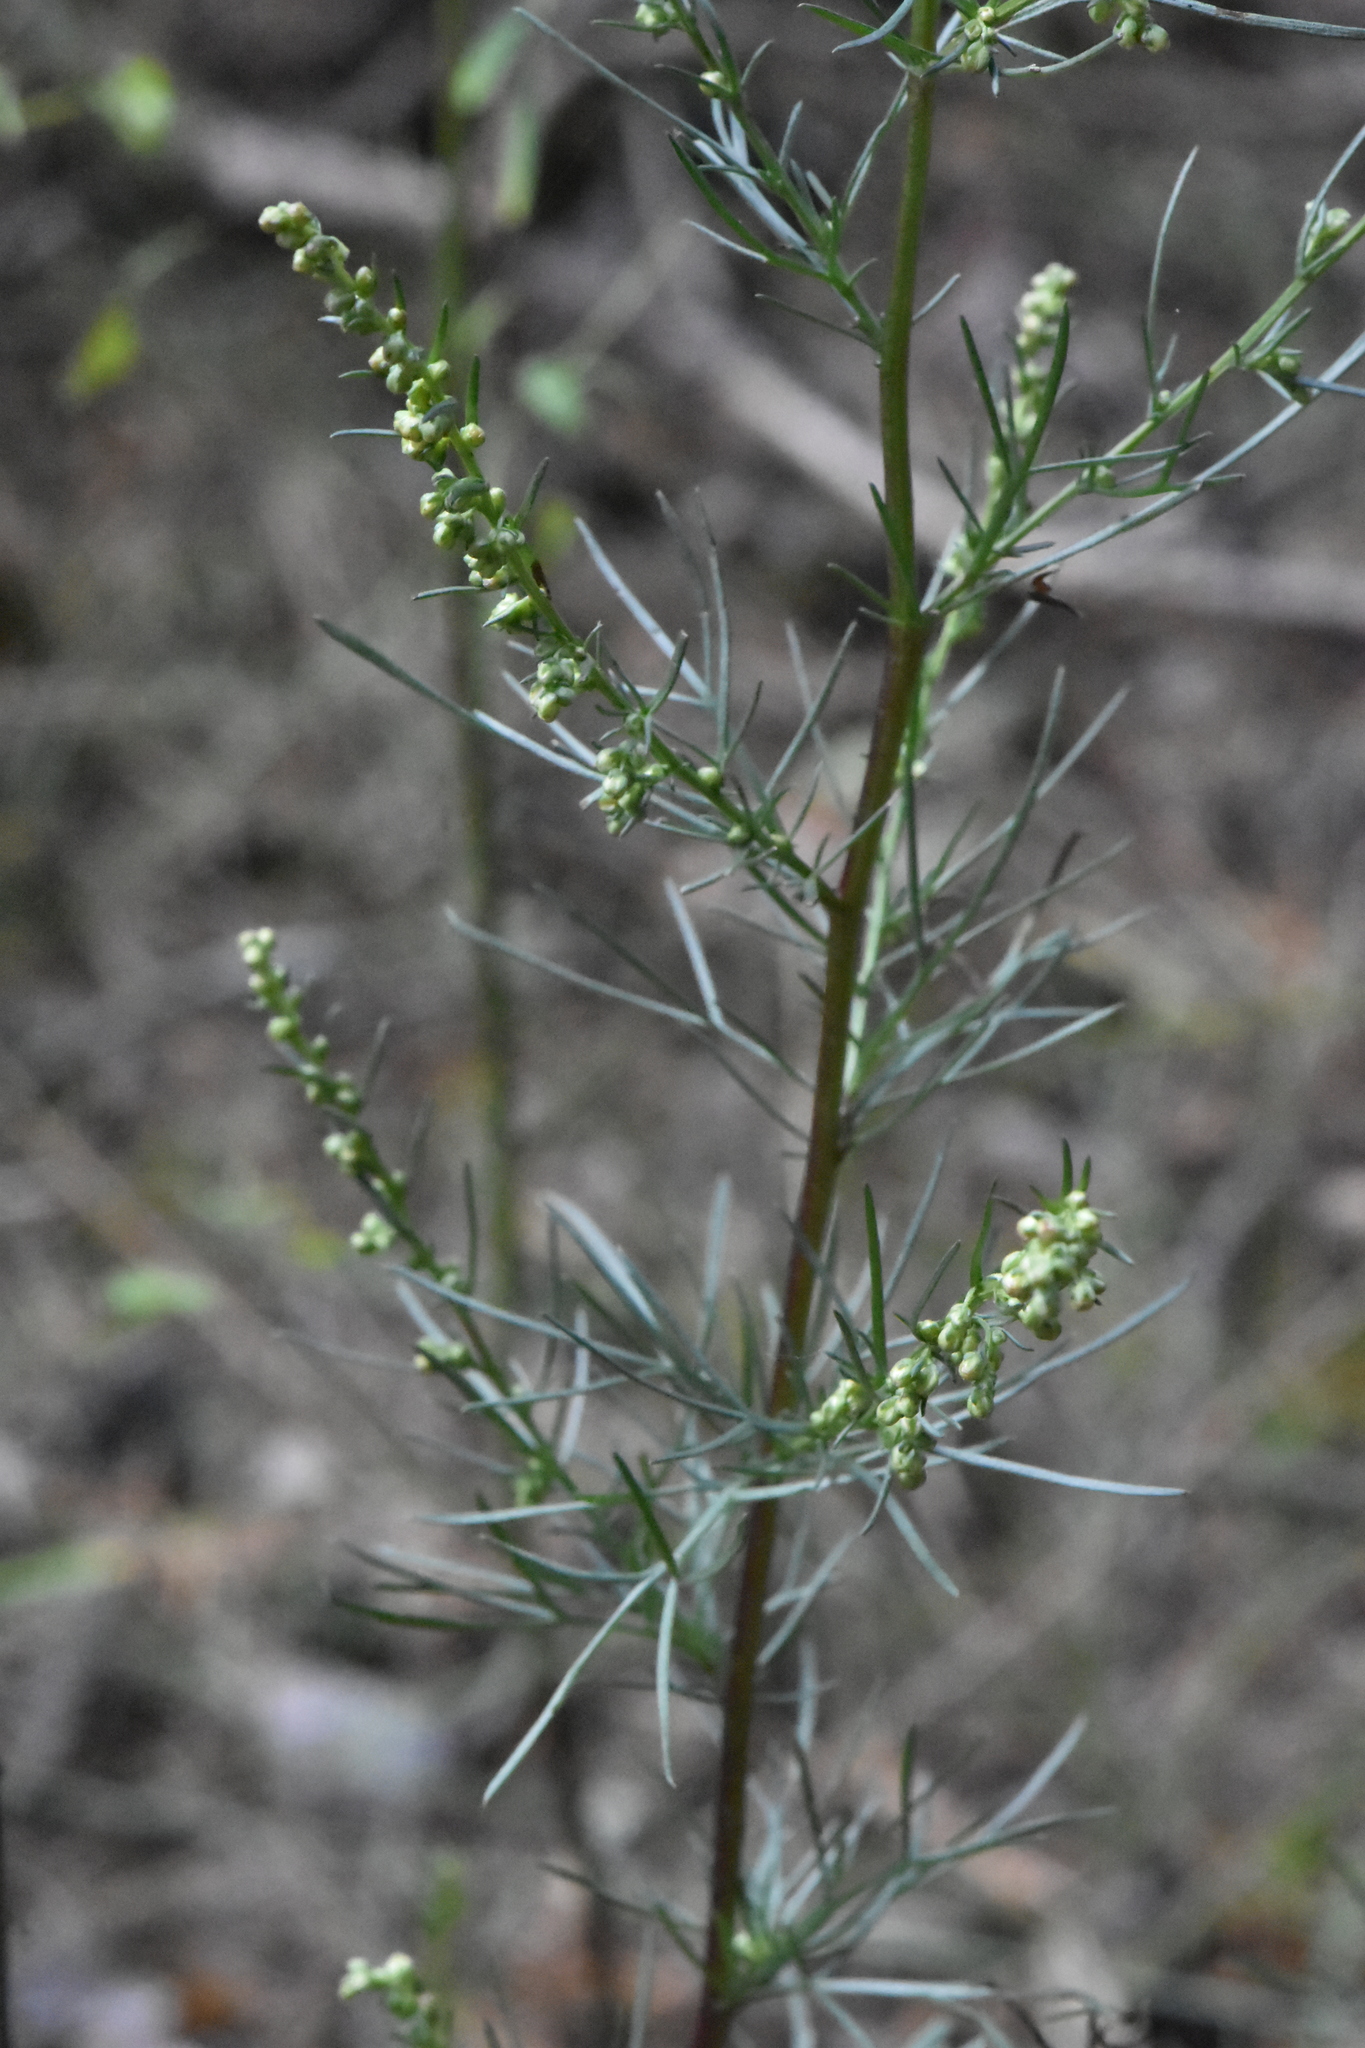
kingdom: Plantae
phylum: Tracheophyta
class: Magnoliopsida
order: Asterales
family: Asteraceae
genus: Artemisia
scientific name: Artemisia campestris
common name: Field wormwood
